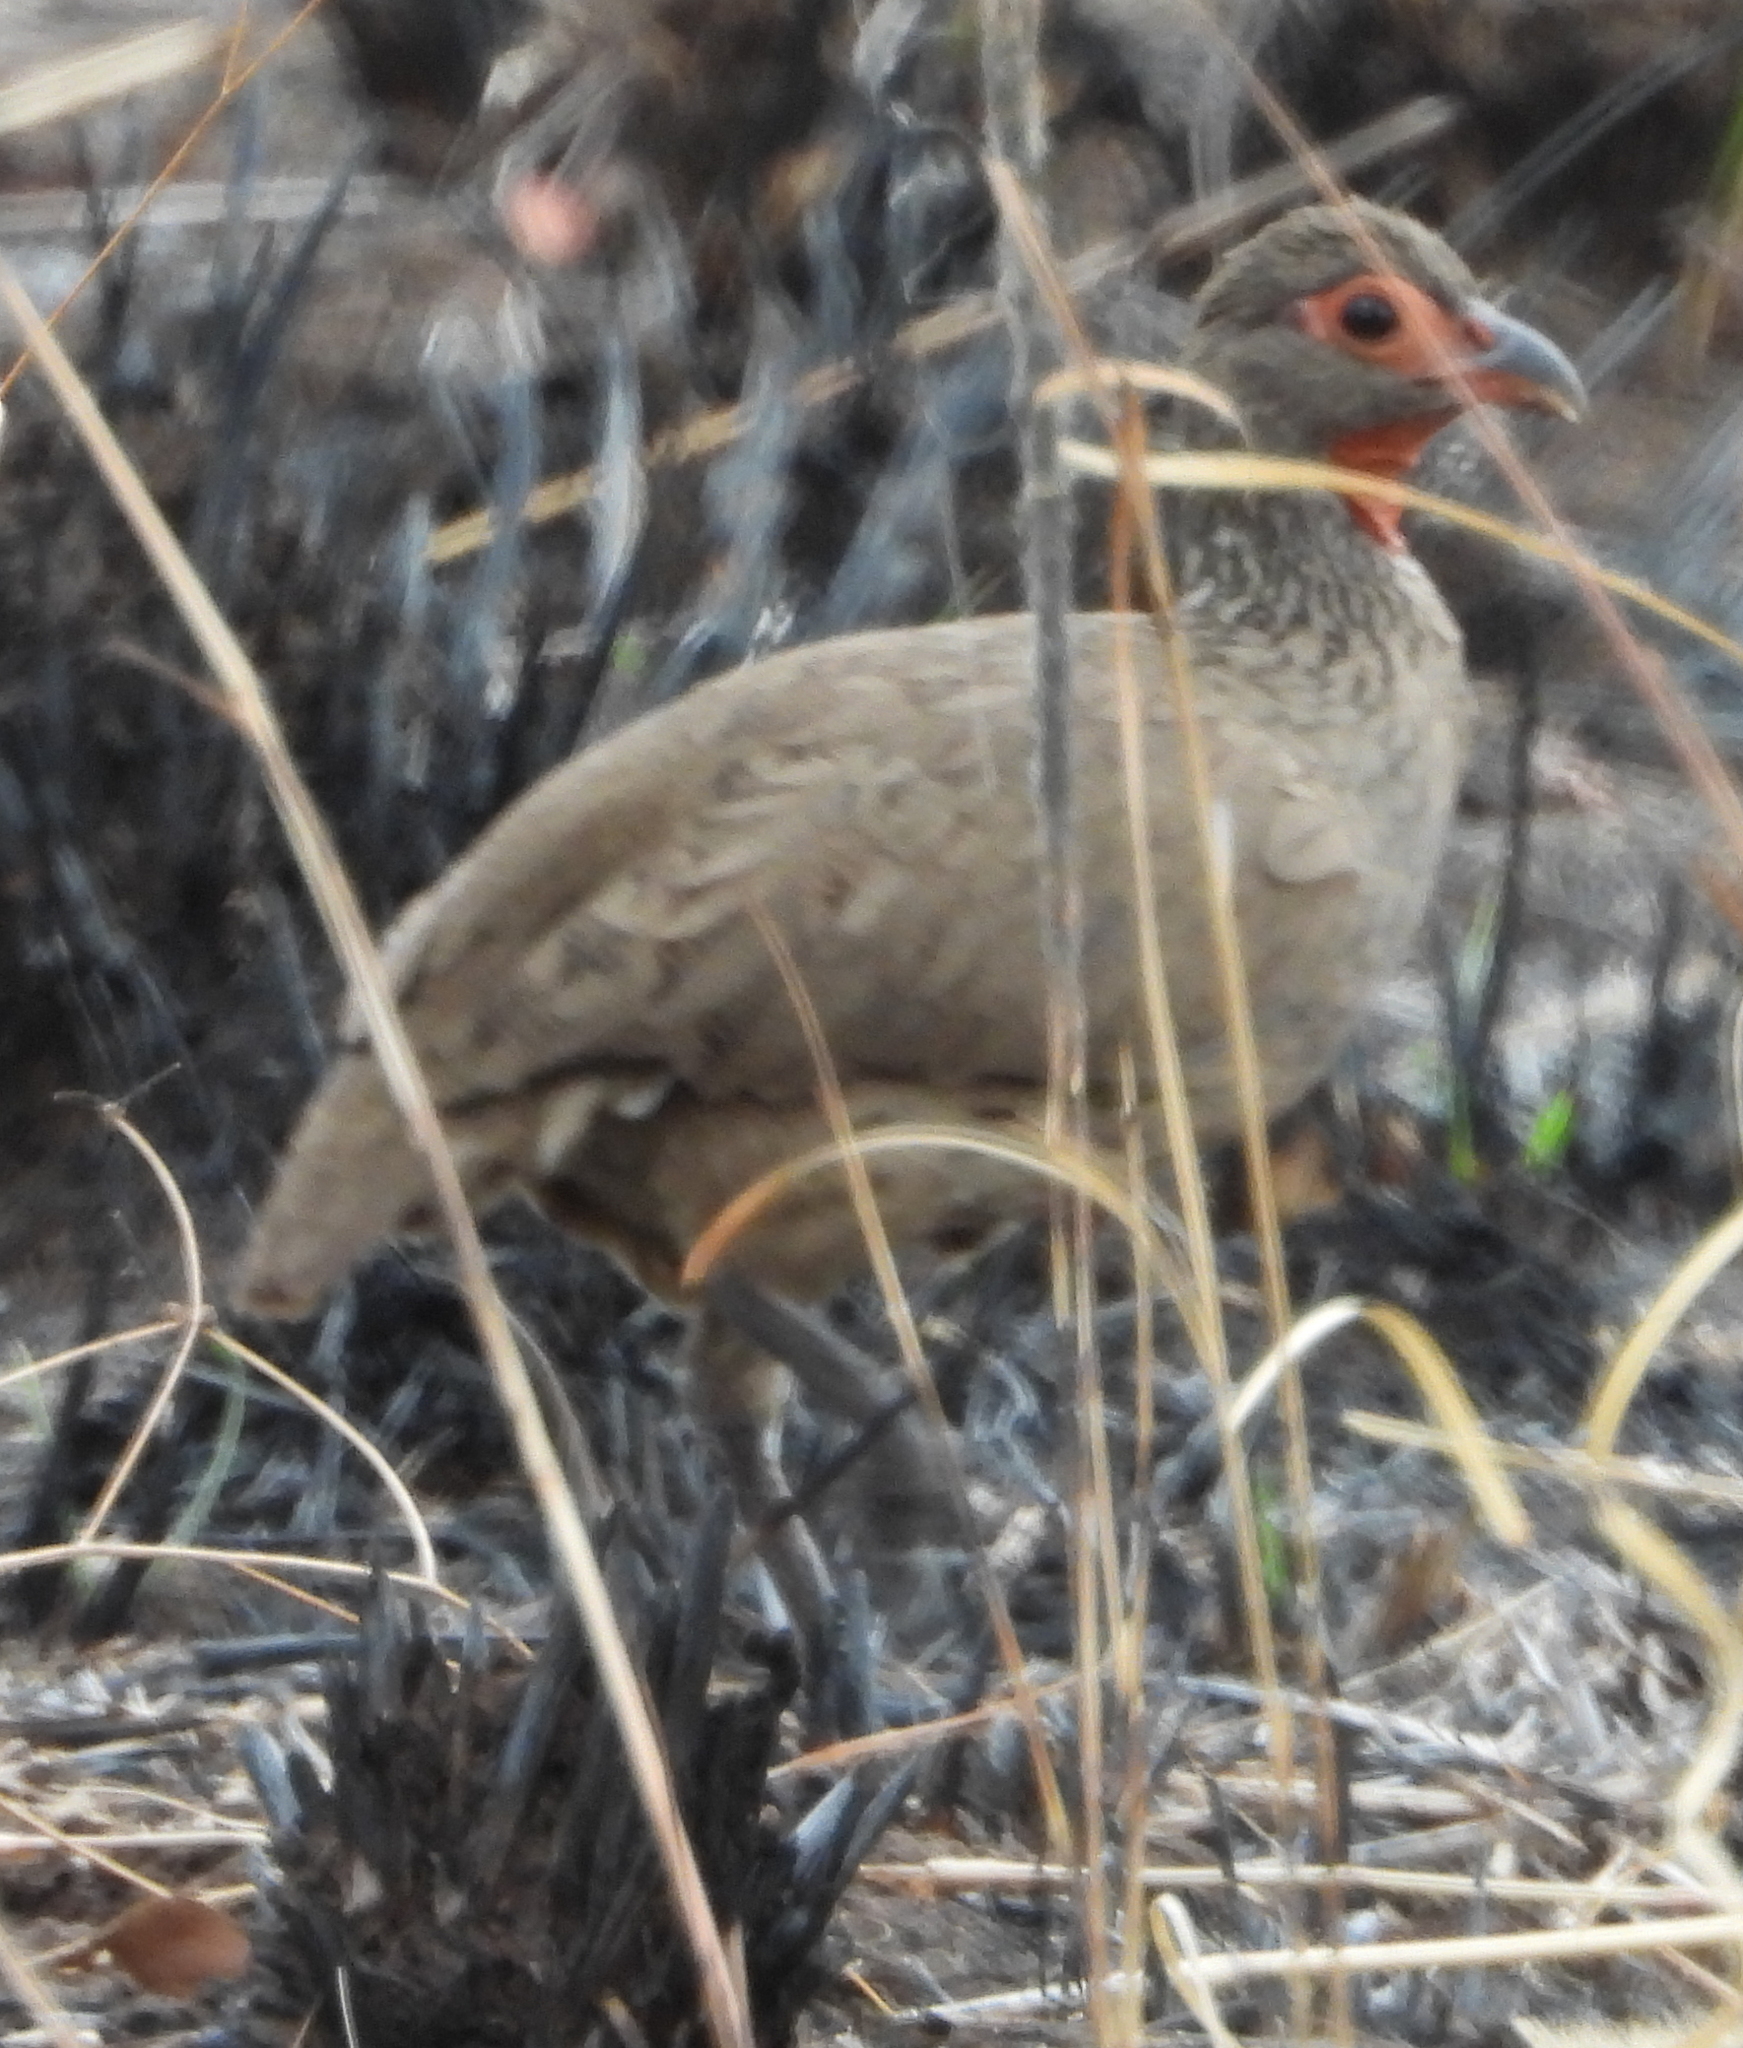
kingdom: Animalia
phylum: Chordata
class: Aves
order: Galliformes
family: Phasianidae
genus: Pternistis
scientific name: Pternistis swainsonii
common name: Swainson's spurfowl
